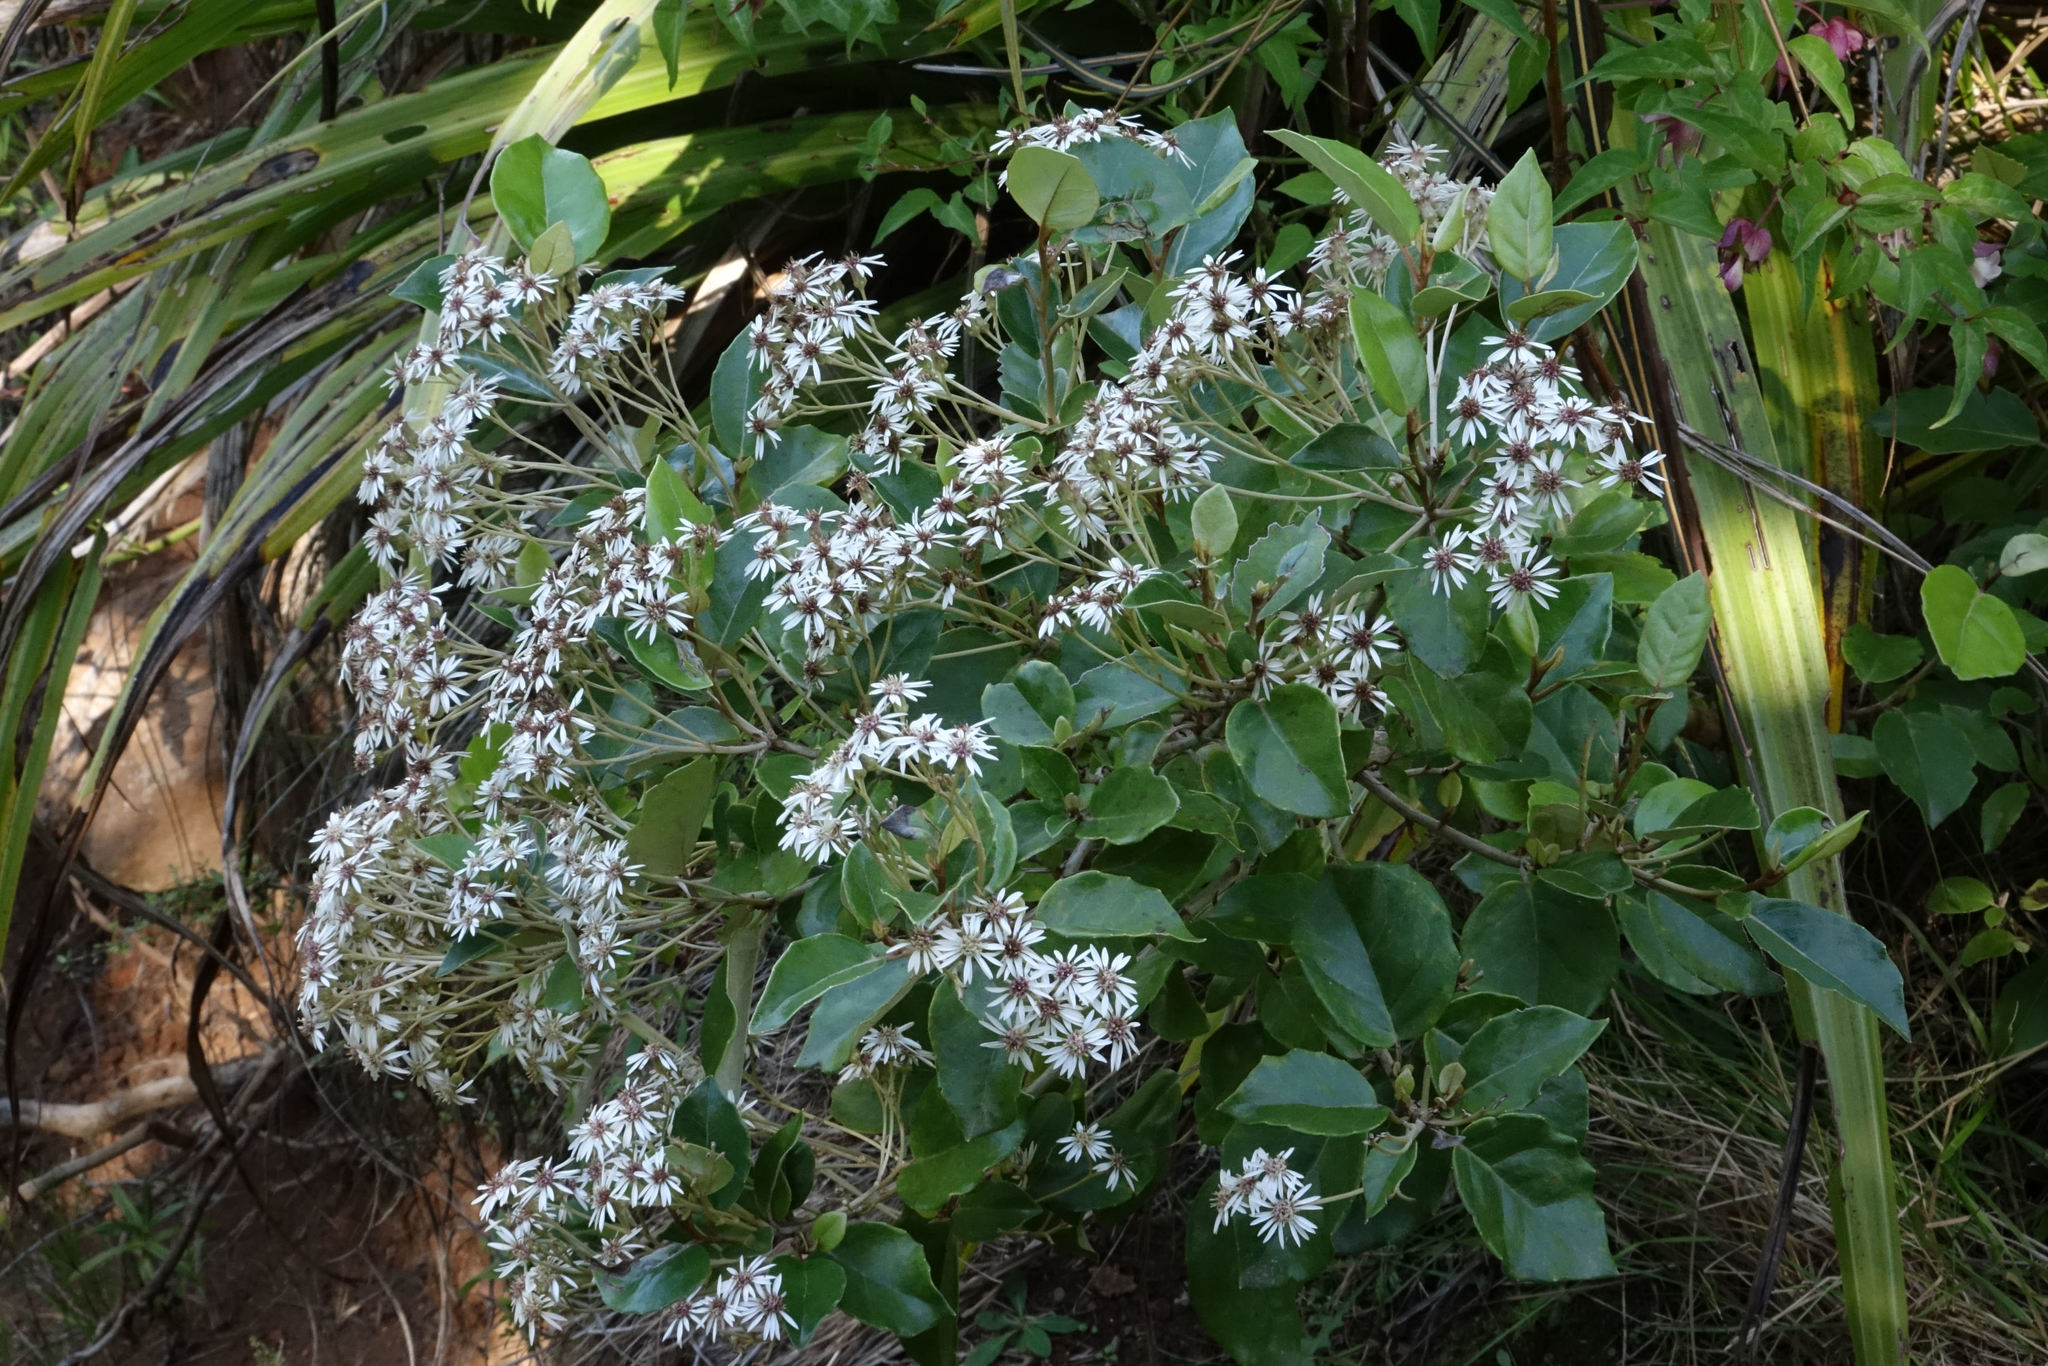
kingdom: Plantae
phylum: Tracheophyta
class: Magnoliopsida
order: Asterales
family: Asteraceae
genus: Olearia
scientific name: Olearia arborescens
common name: Glossy tree daisy
